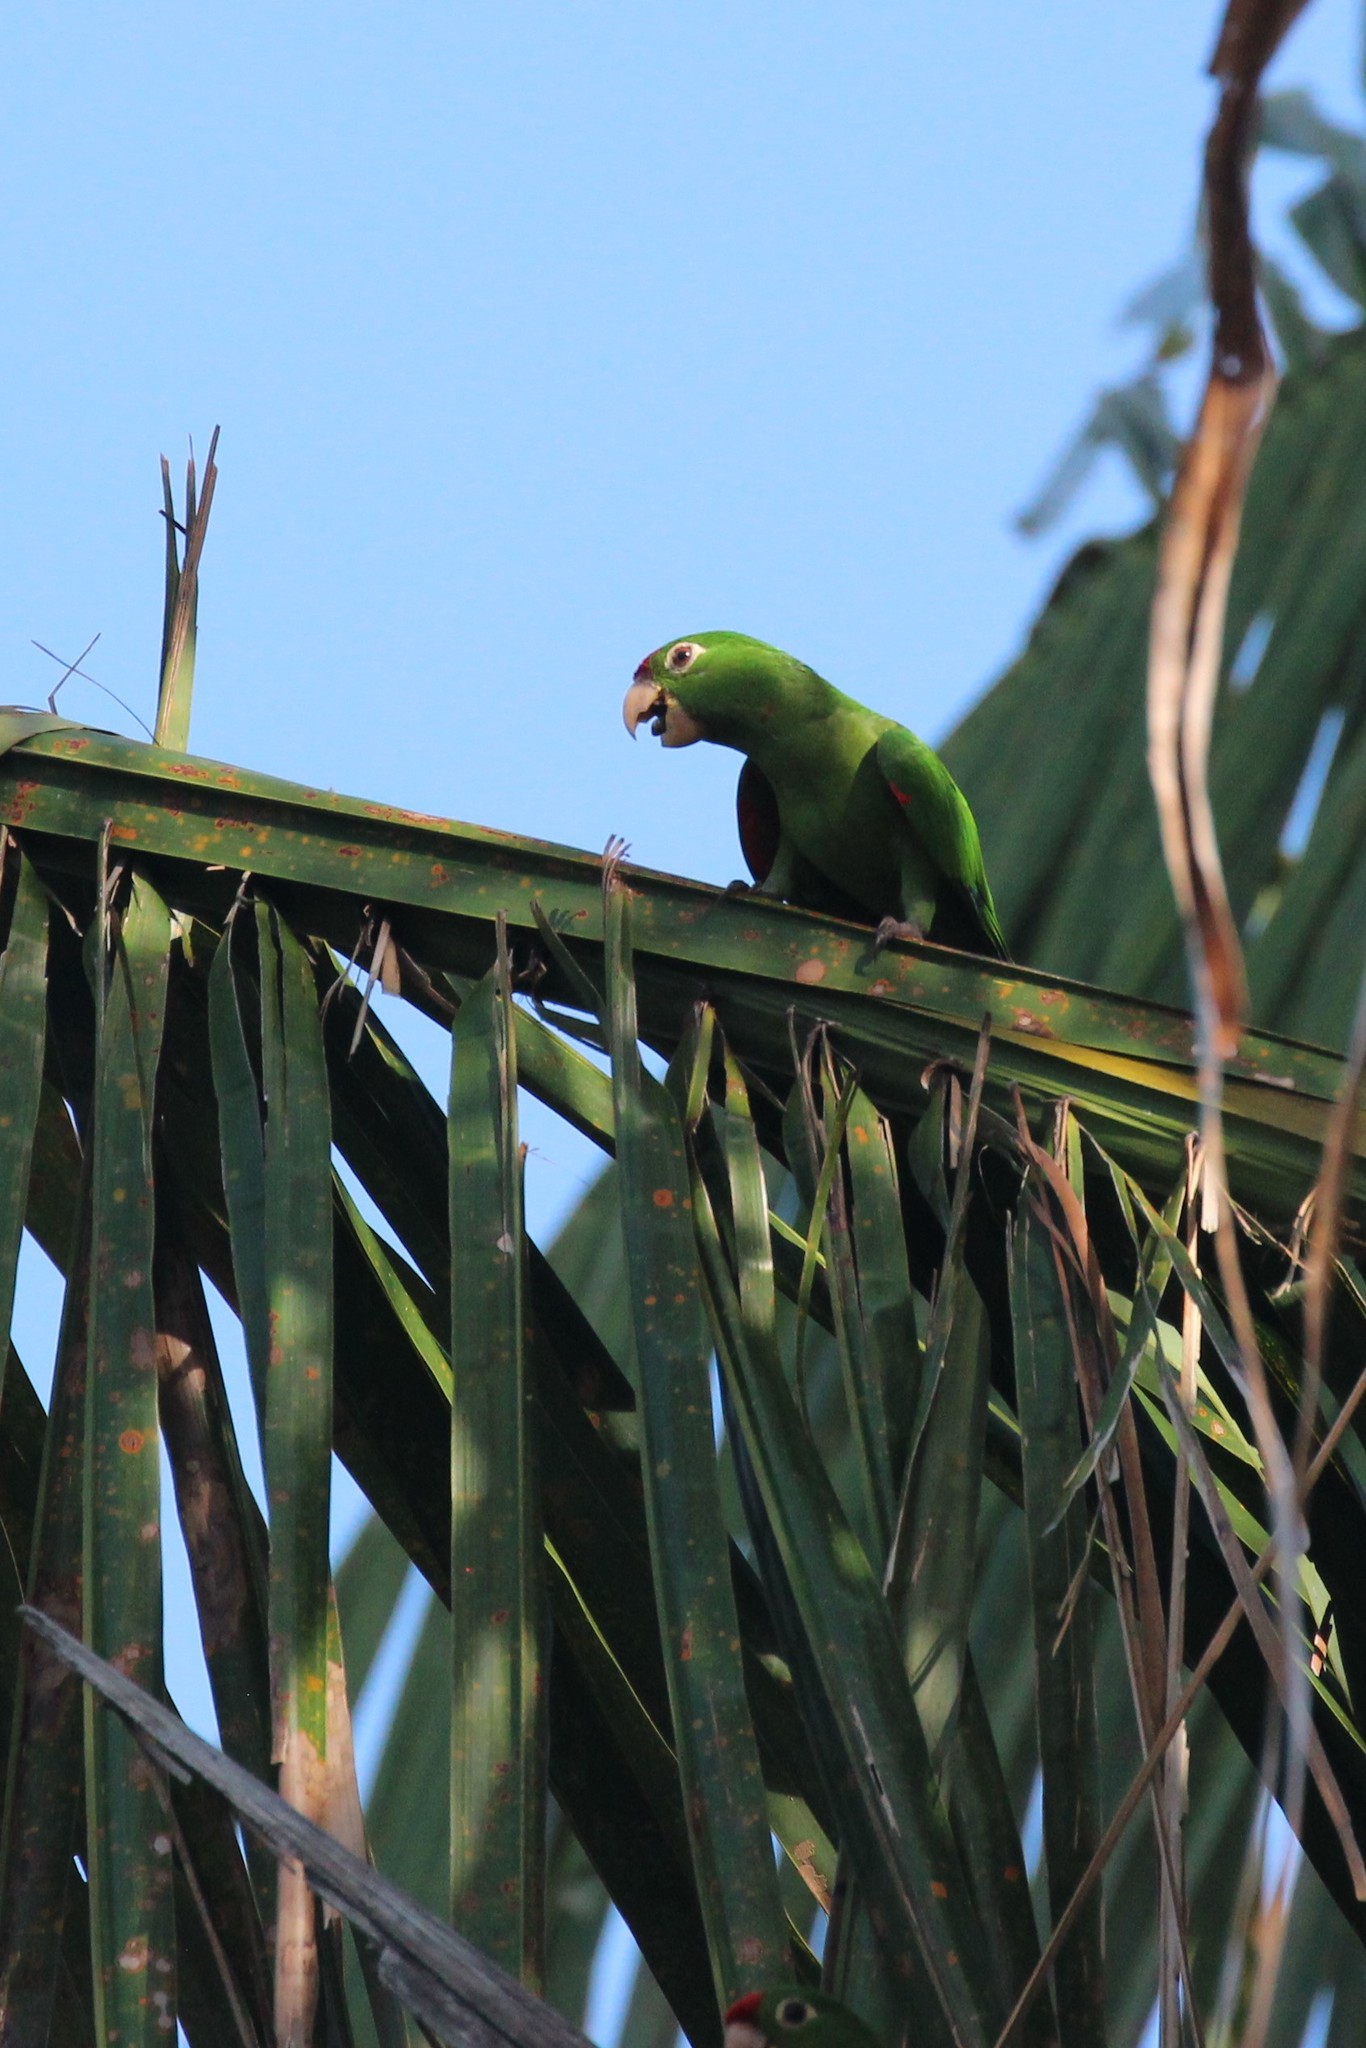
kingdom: Animalia
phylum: Chordata
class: Aves
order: Psittaciformes
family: Psittacidae
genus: Aratinga
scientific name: Aratinga finschi
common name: Crimson-fronted parakeet
